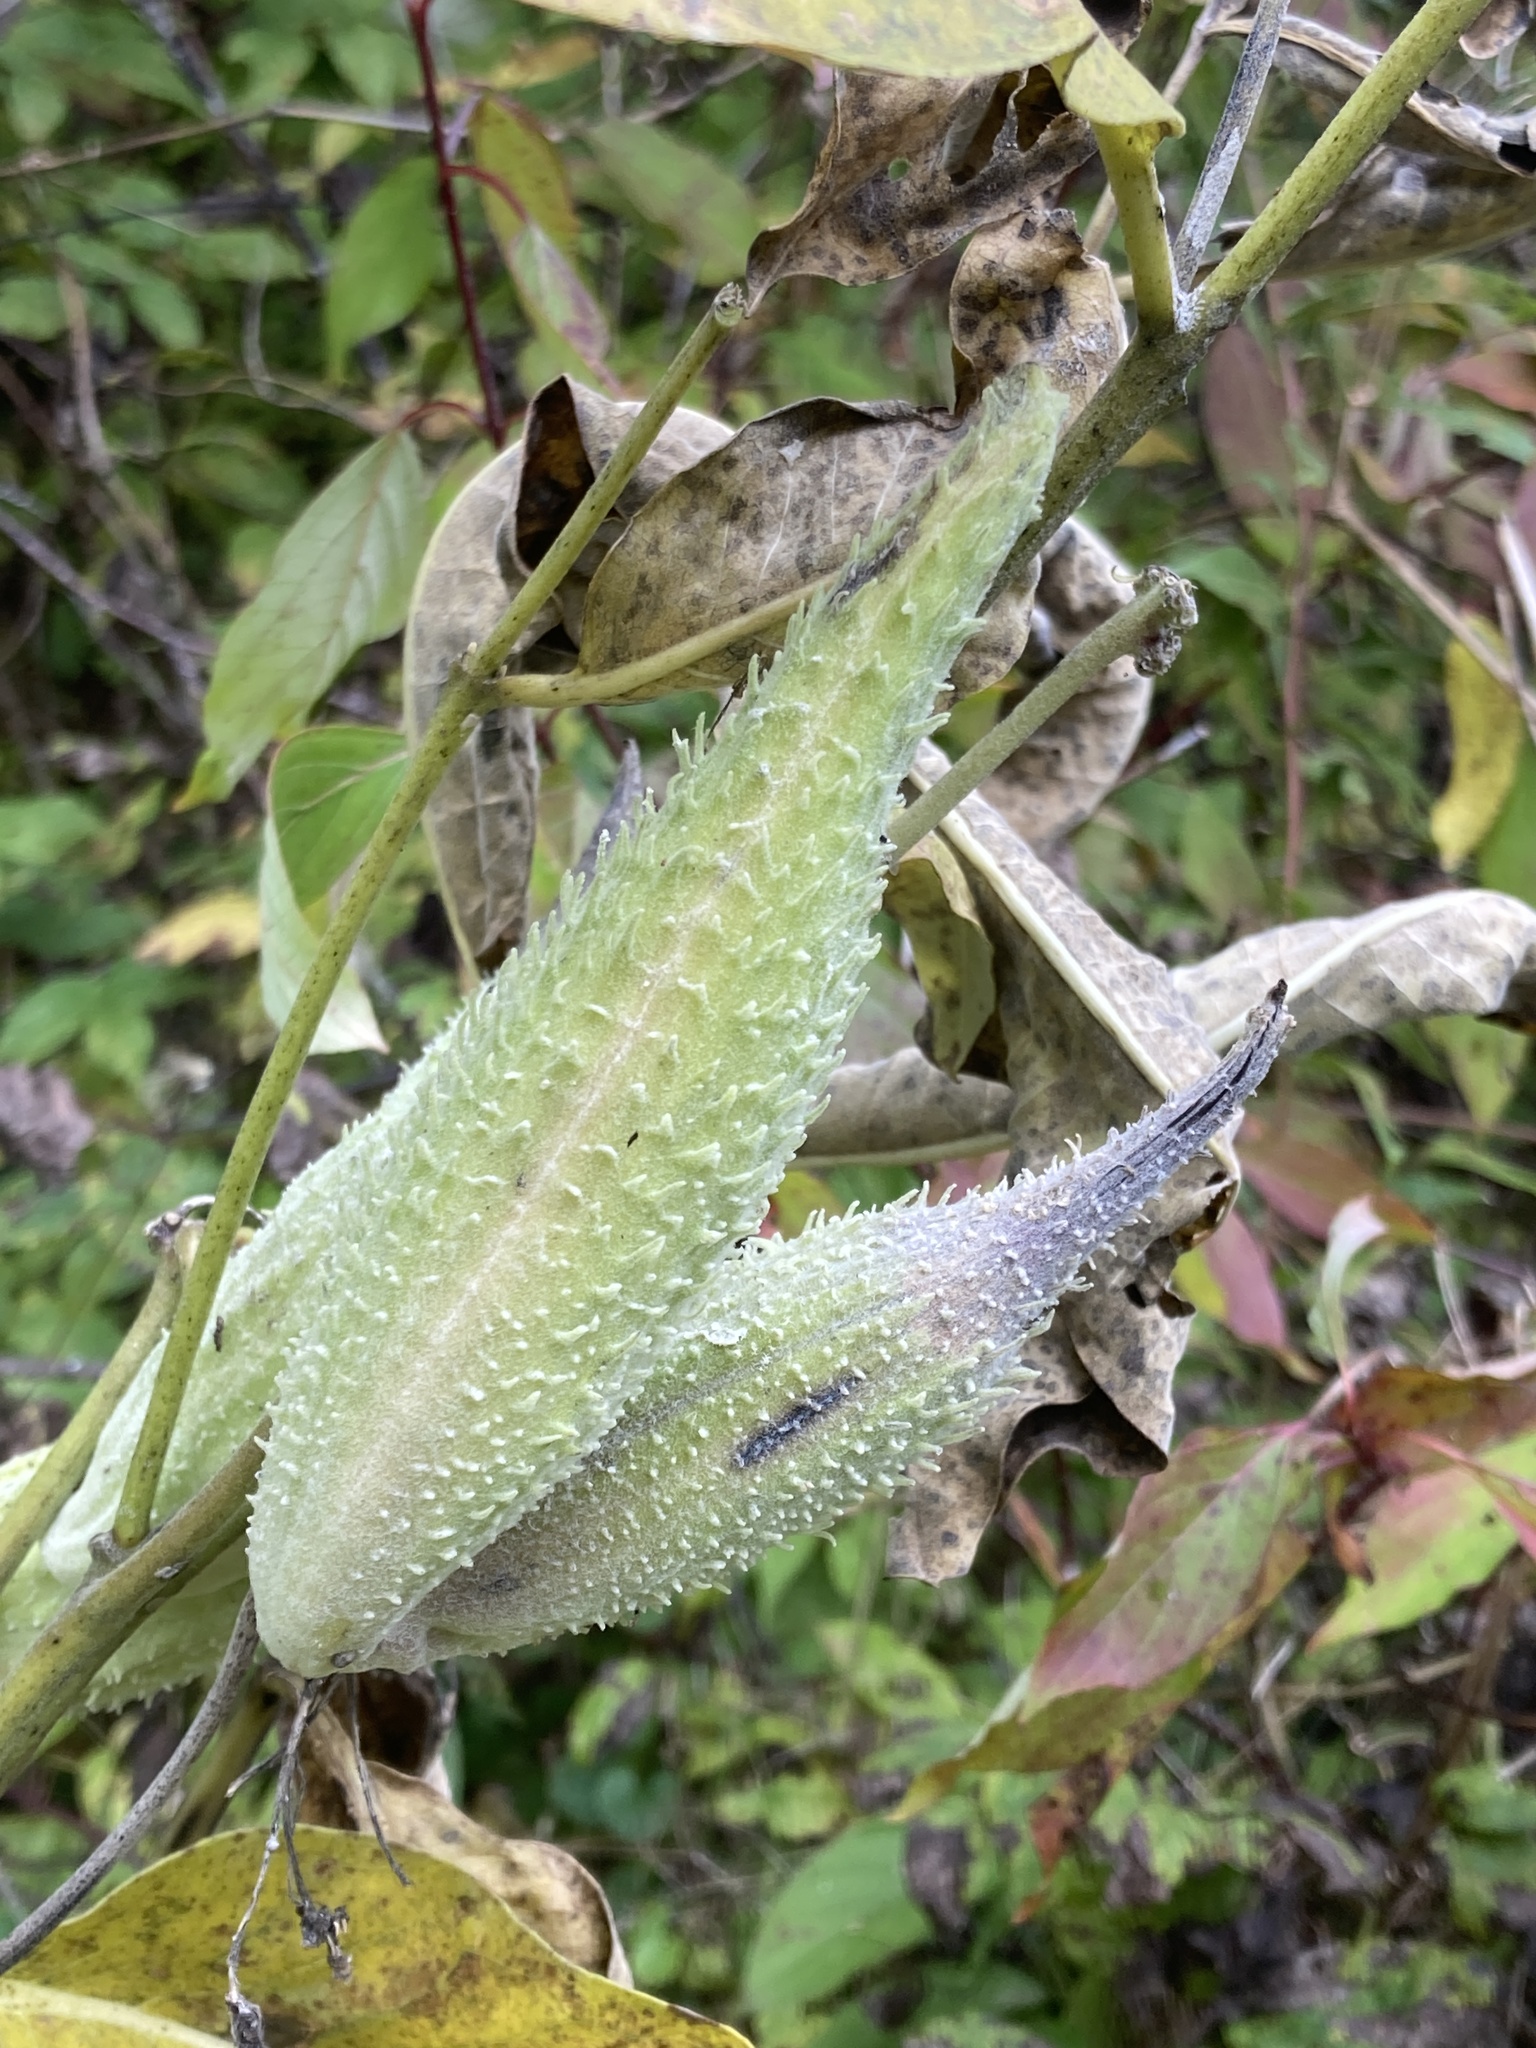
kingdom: Plantae
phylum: Tracheophyta
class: Magnoliopsida
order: Gentianales
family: Apocynaceae
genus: Asclepias
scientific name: Asclepias syriaca
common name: Common milkweed
